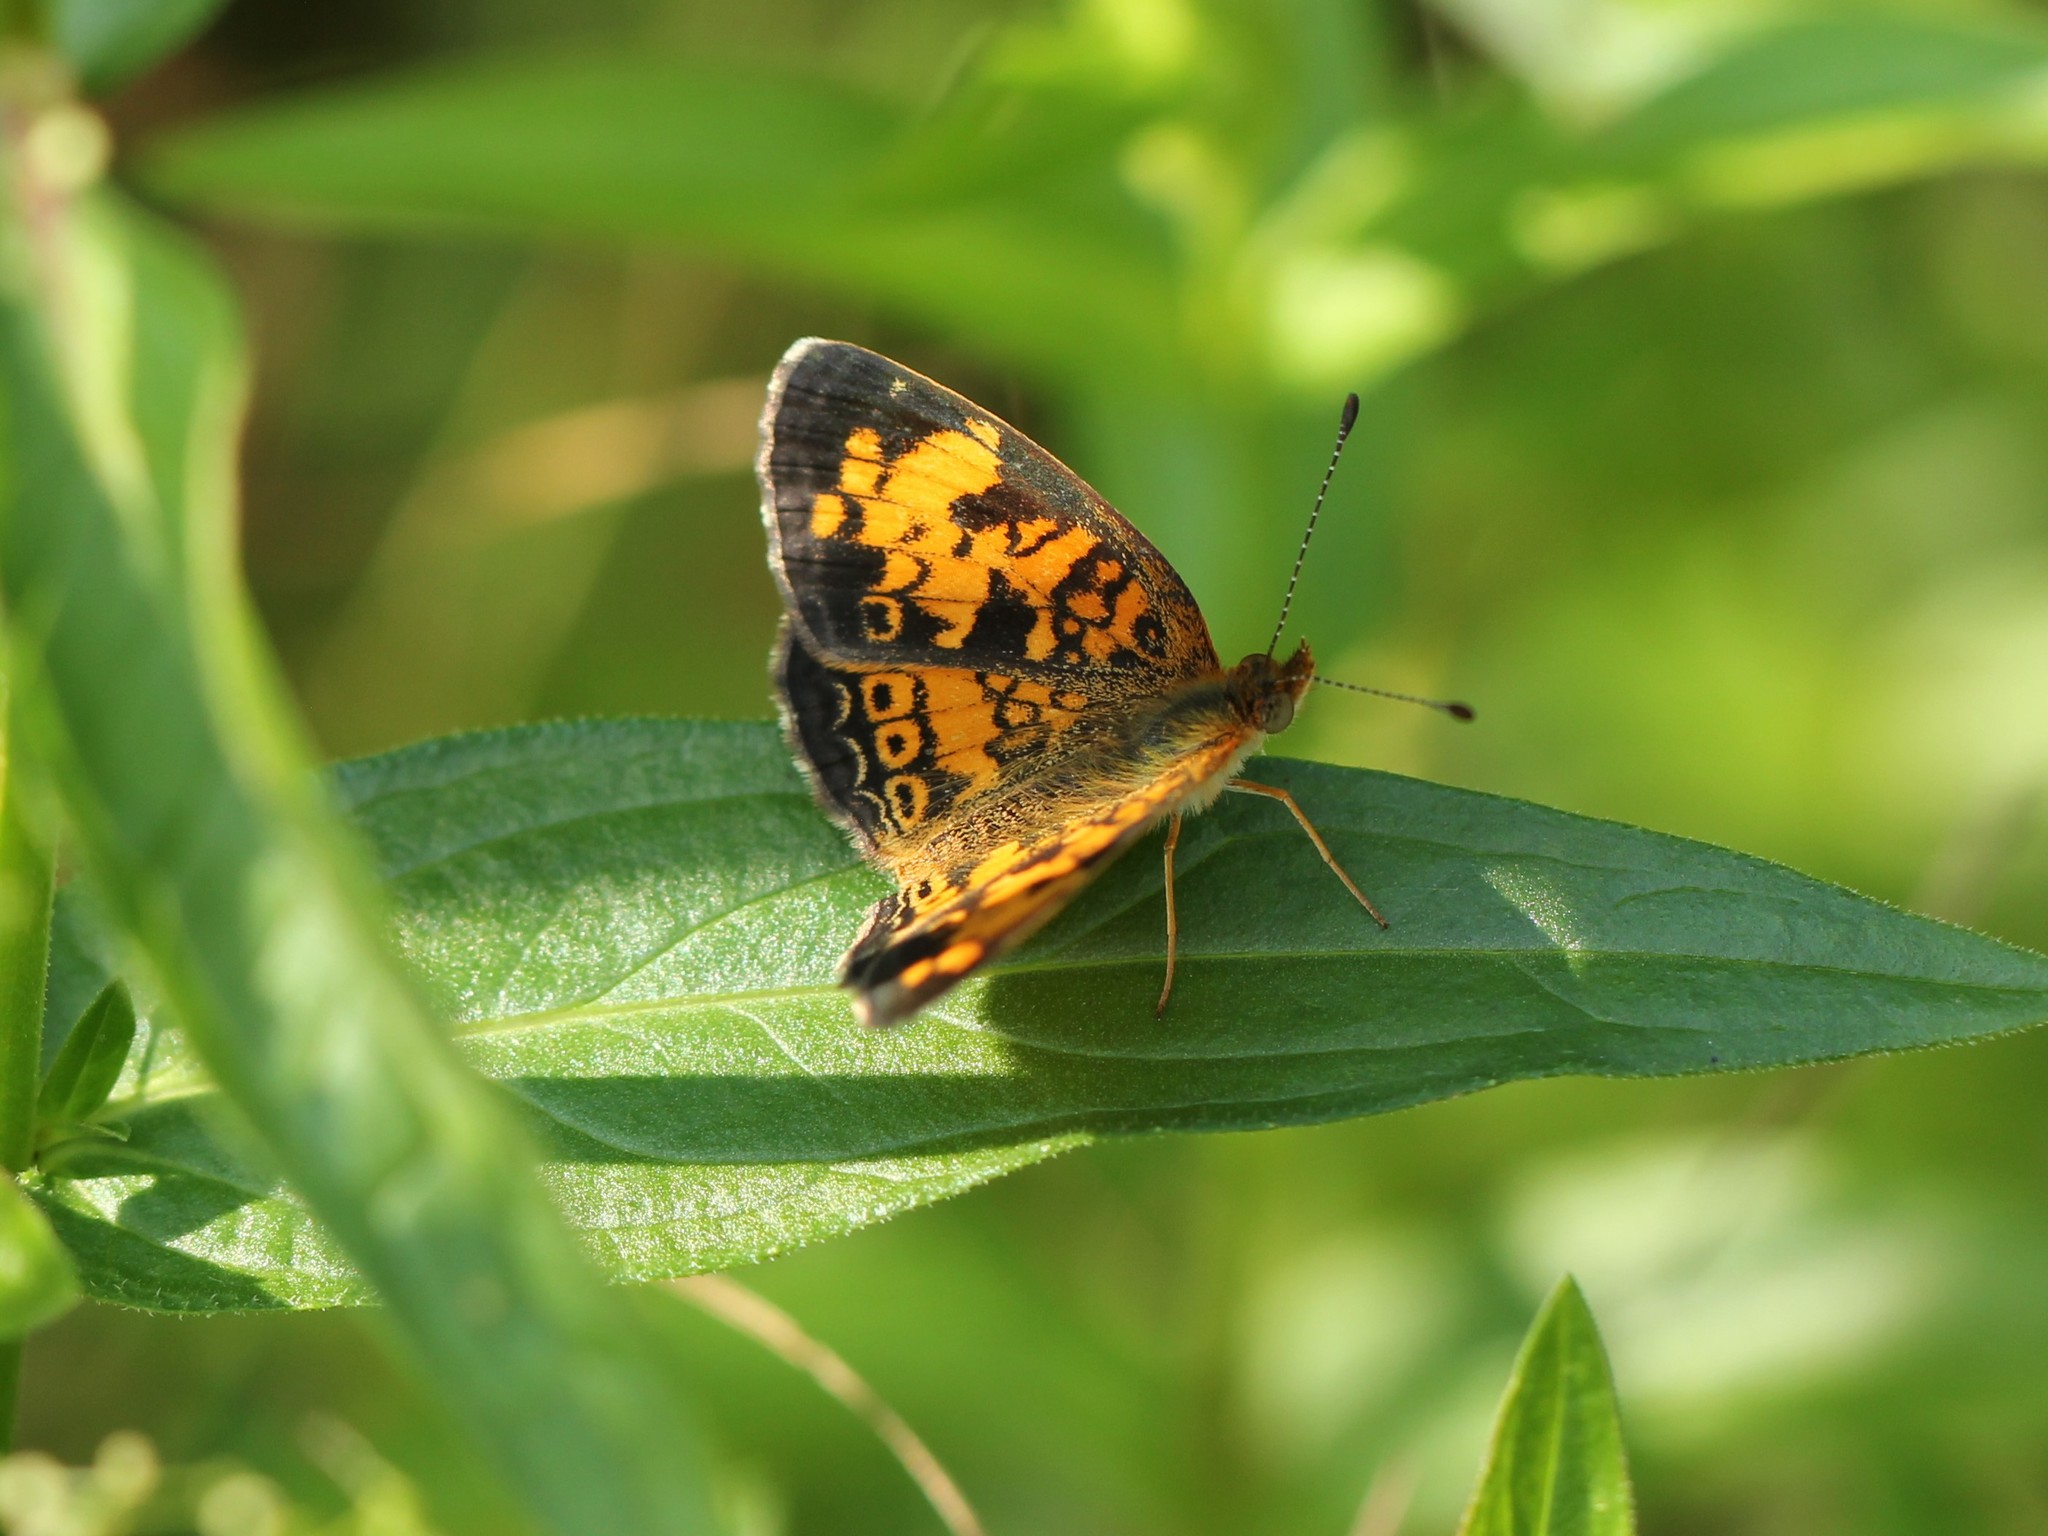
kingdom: Animalia
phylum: Arthropoda
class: Insecta
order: Lepidoptera
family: Nymphalidae
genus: Phyciodes
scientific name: Phyciodes tharos
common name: Pearl crescent
